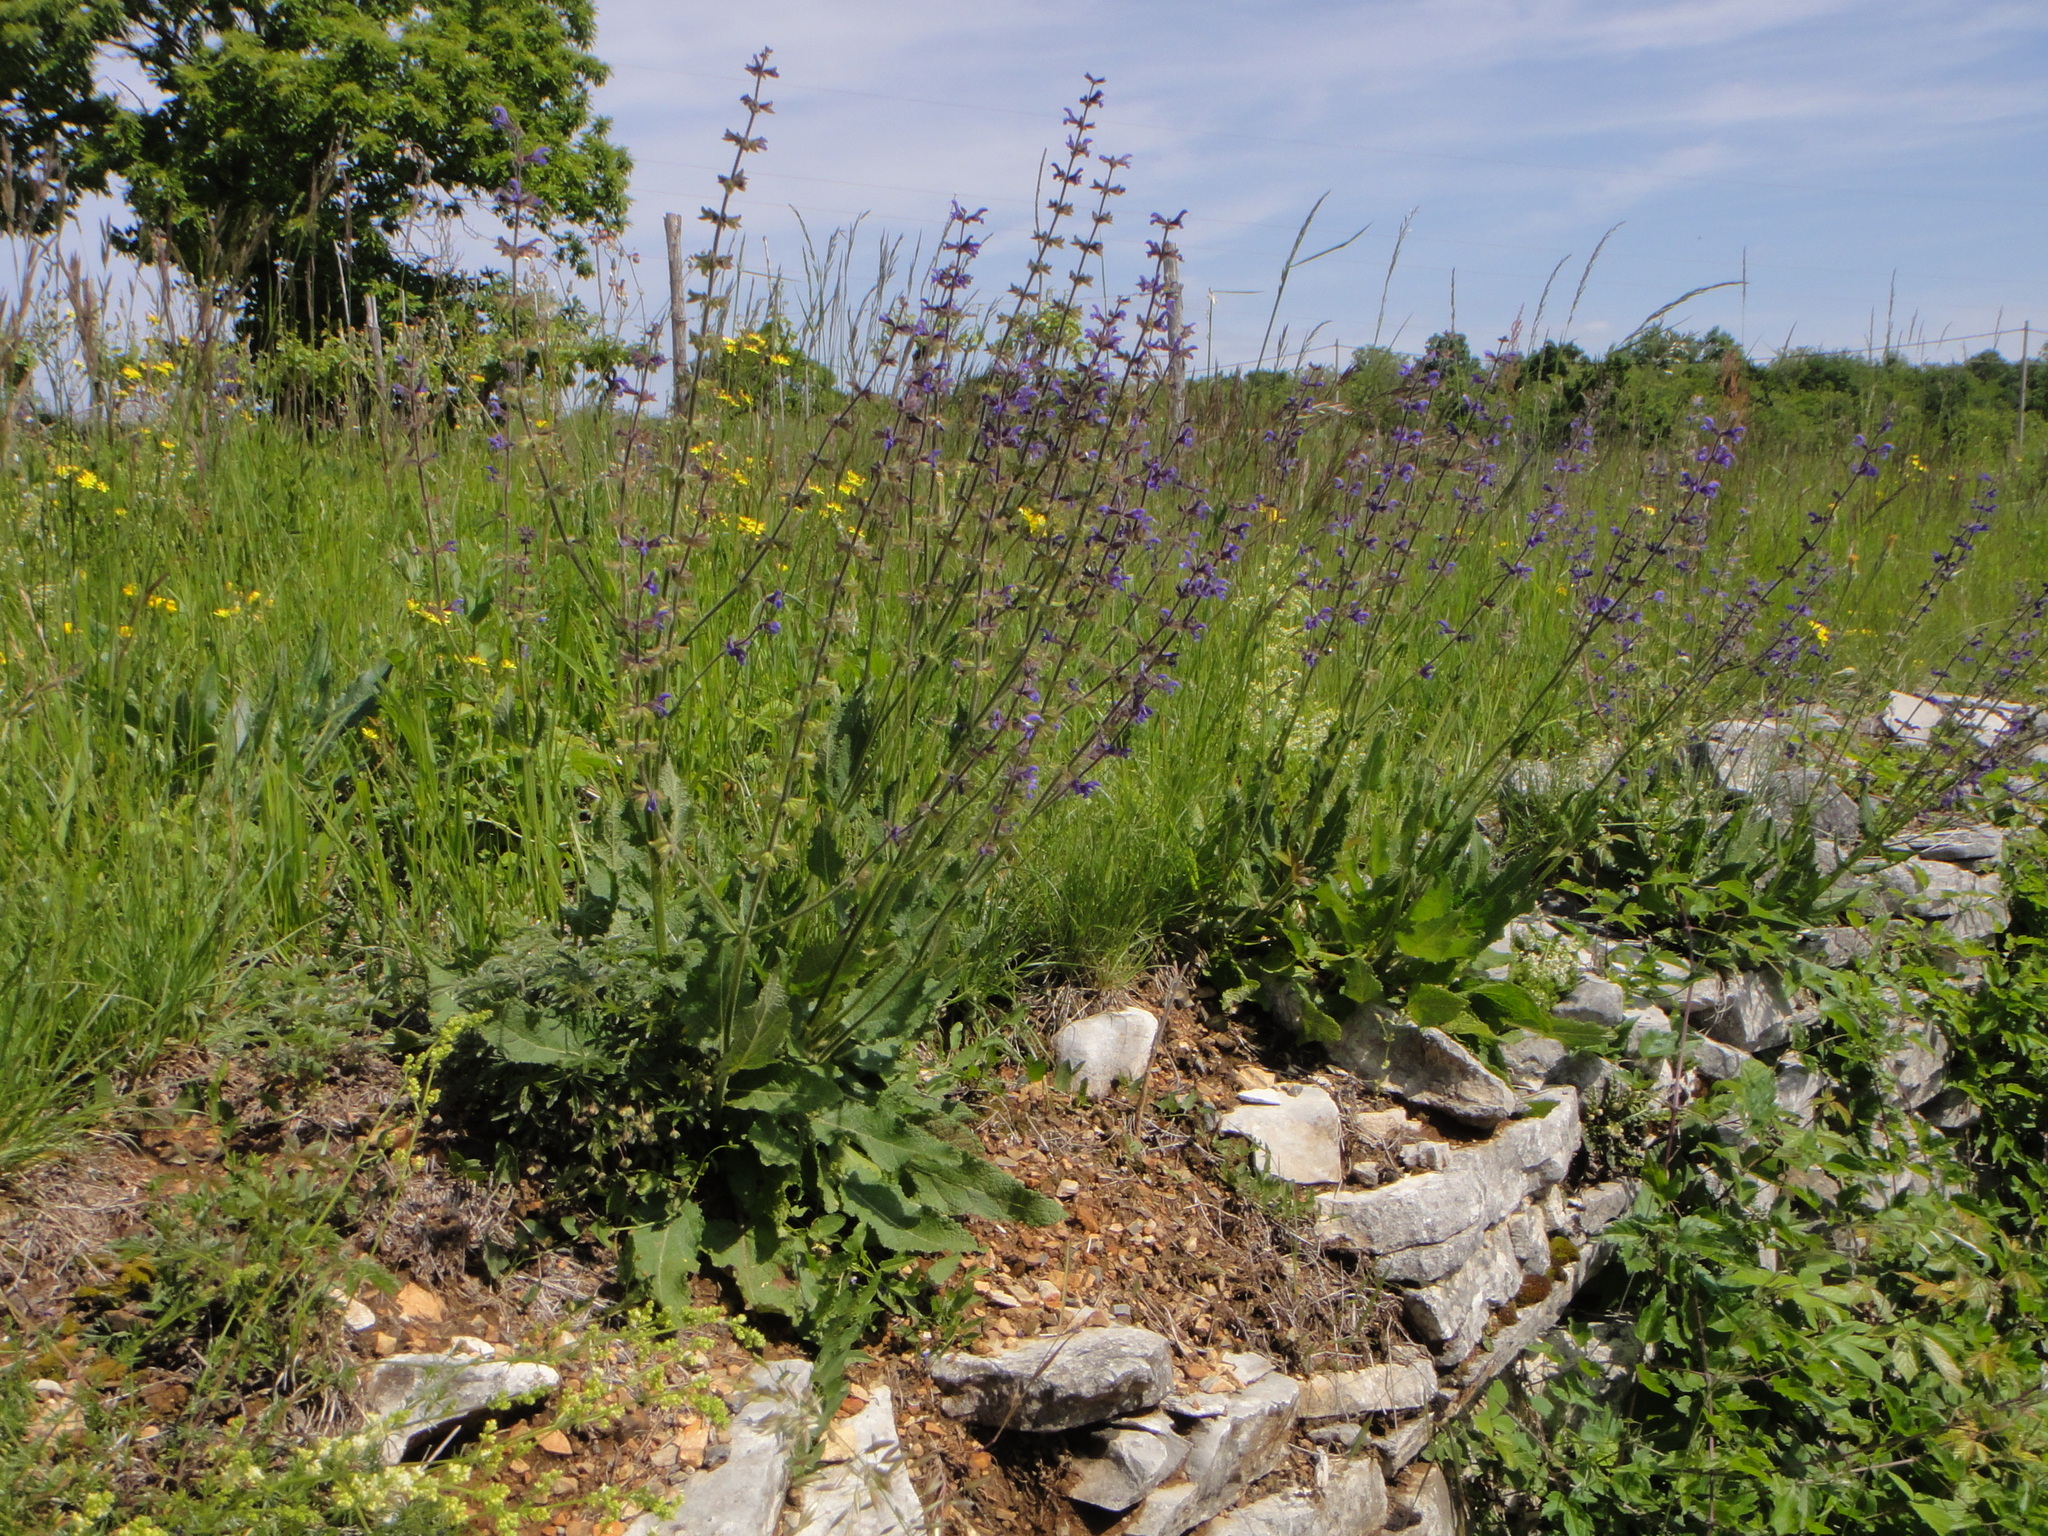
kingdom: Plantae
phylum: Tracheophyta
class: Magnoliopsida
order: Lamiales
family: Lamiaceae
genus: Salvia
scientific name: Salvia pratensis
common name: Meadow sage
